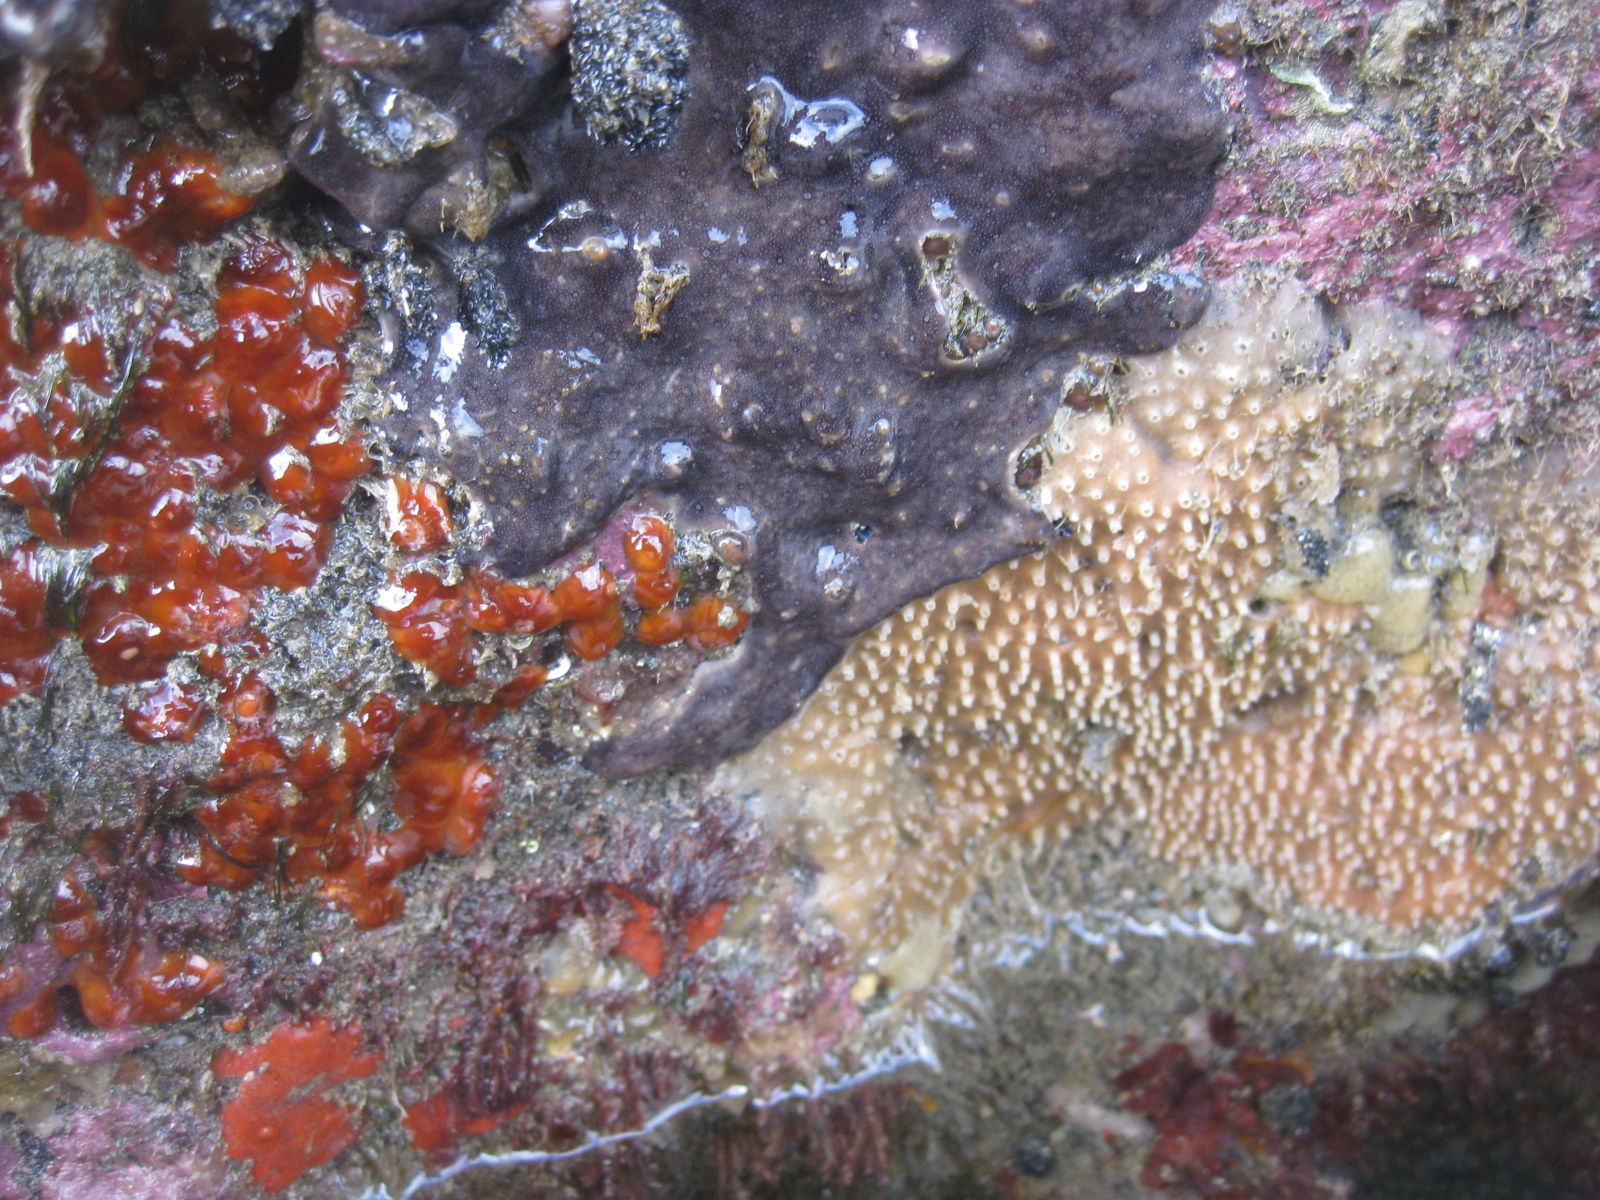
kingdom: Animalia
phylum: Bryozoa
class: Gymnolaemata
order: Cheilostomatida
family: Celleporidae
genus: Celleporaria
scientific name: Celleporaria nodulosa
